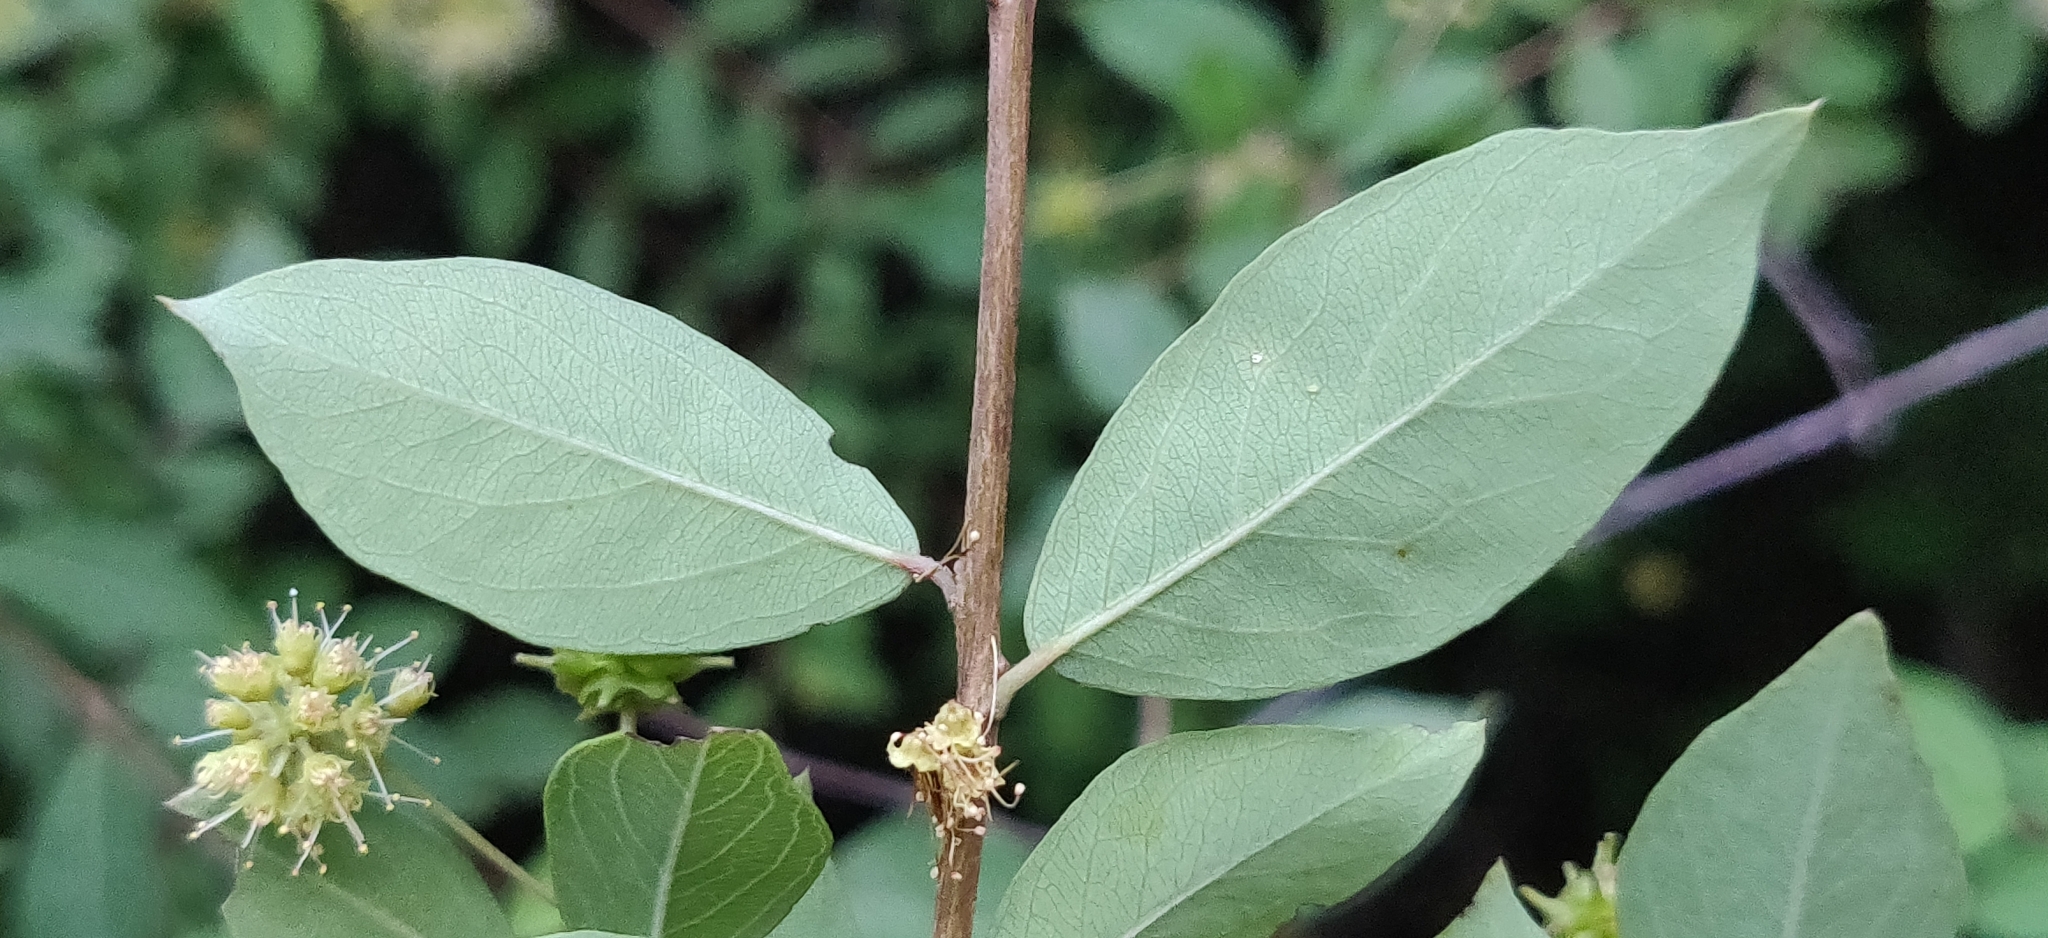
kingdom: Plantae
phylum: Tracheophyta
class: Magnoliopsida
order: Myrtales
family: Combretaceae
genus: Terminalia
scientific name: Terminalia pendula
